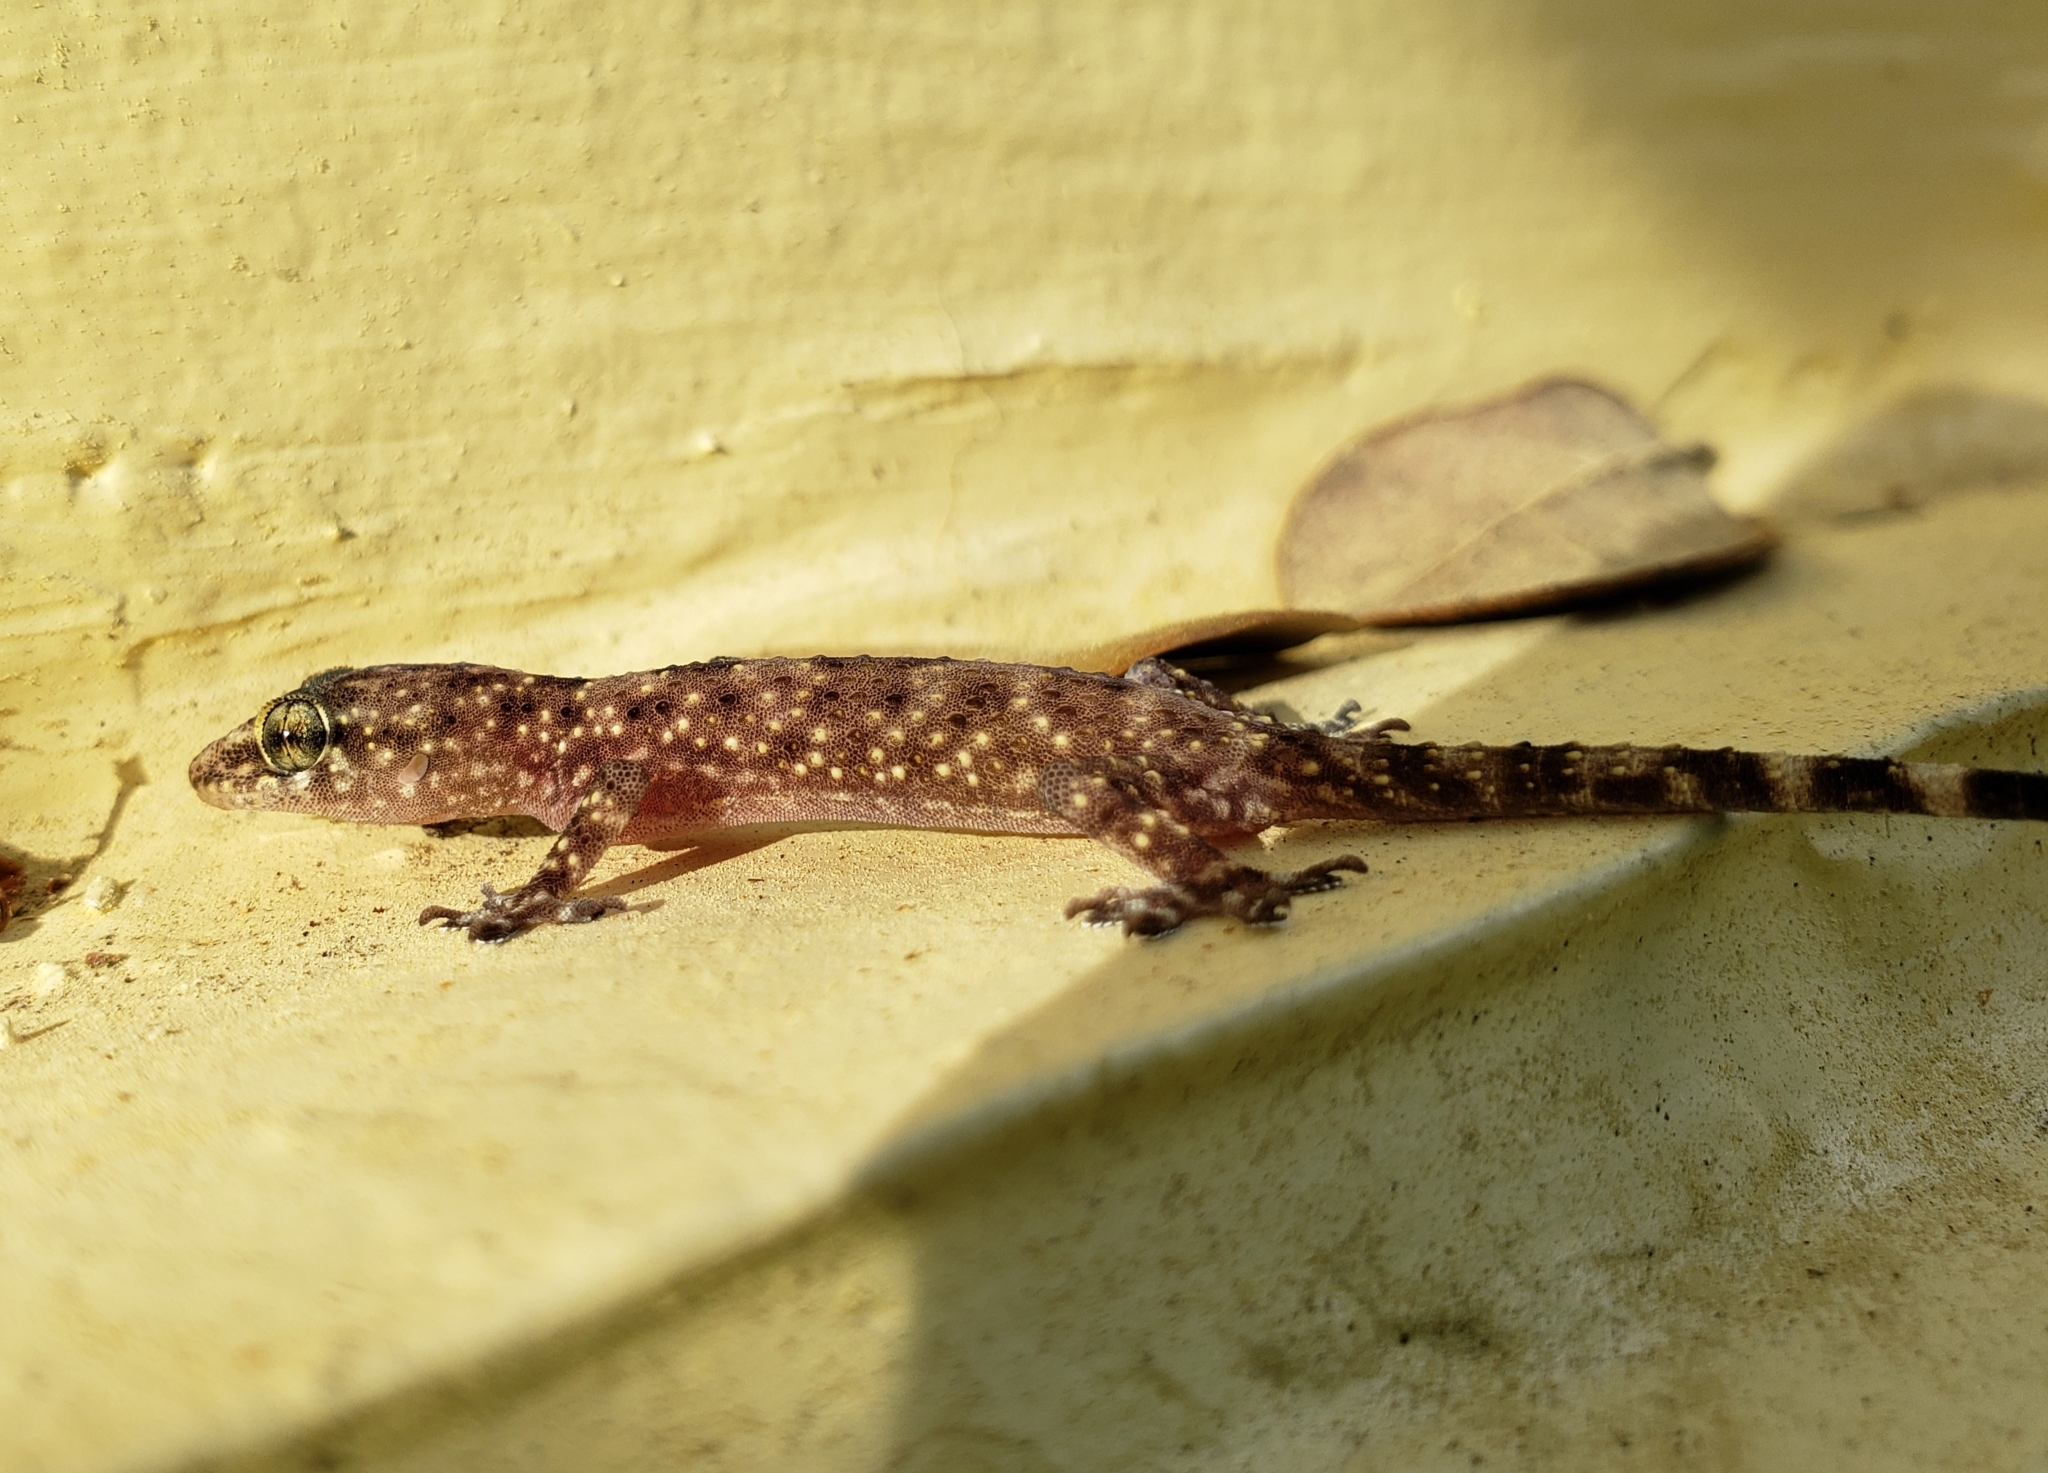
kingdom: Animalia
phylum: Chordata
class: Squamata
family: Gekkonidae
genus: Hemidactylus
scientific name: Hemidactylus turcicus
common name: Turkish gecko
